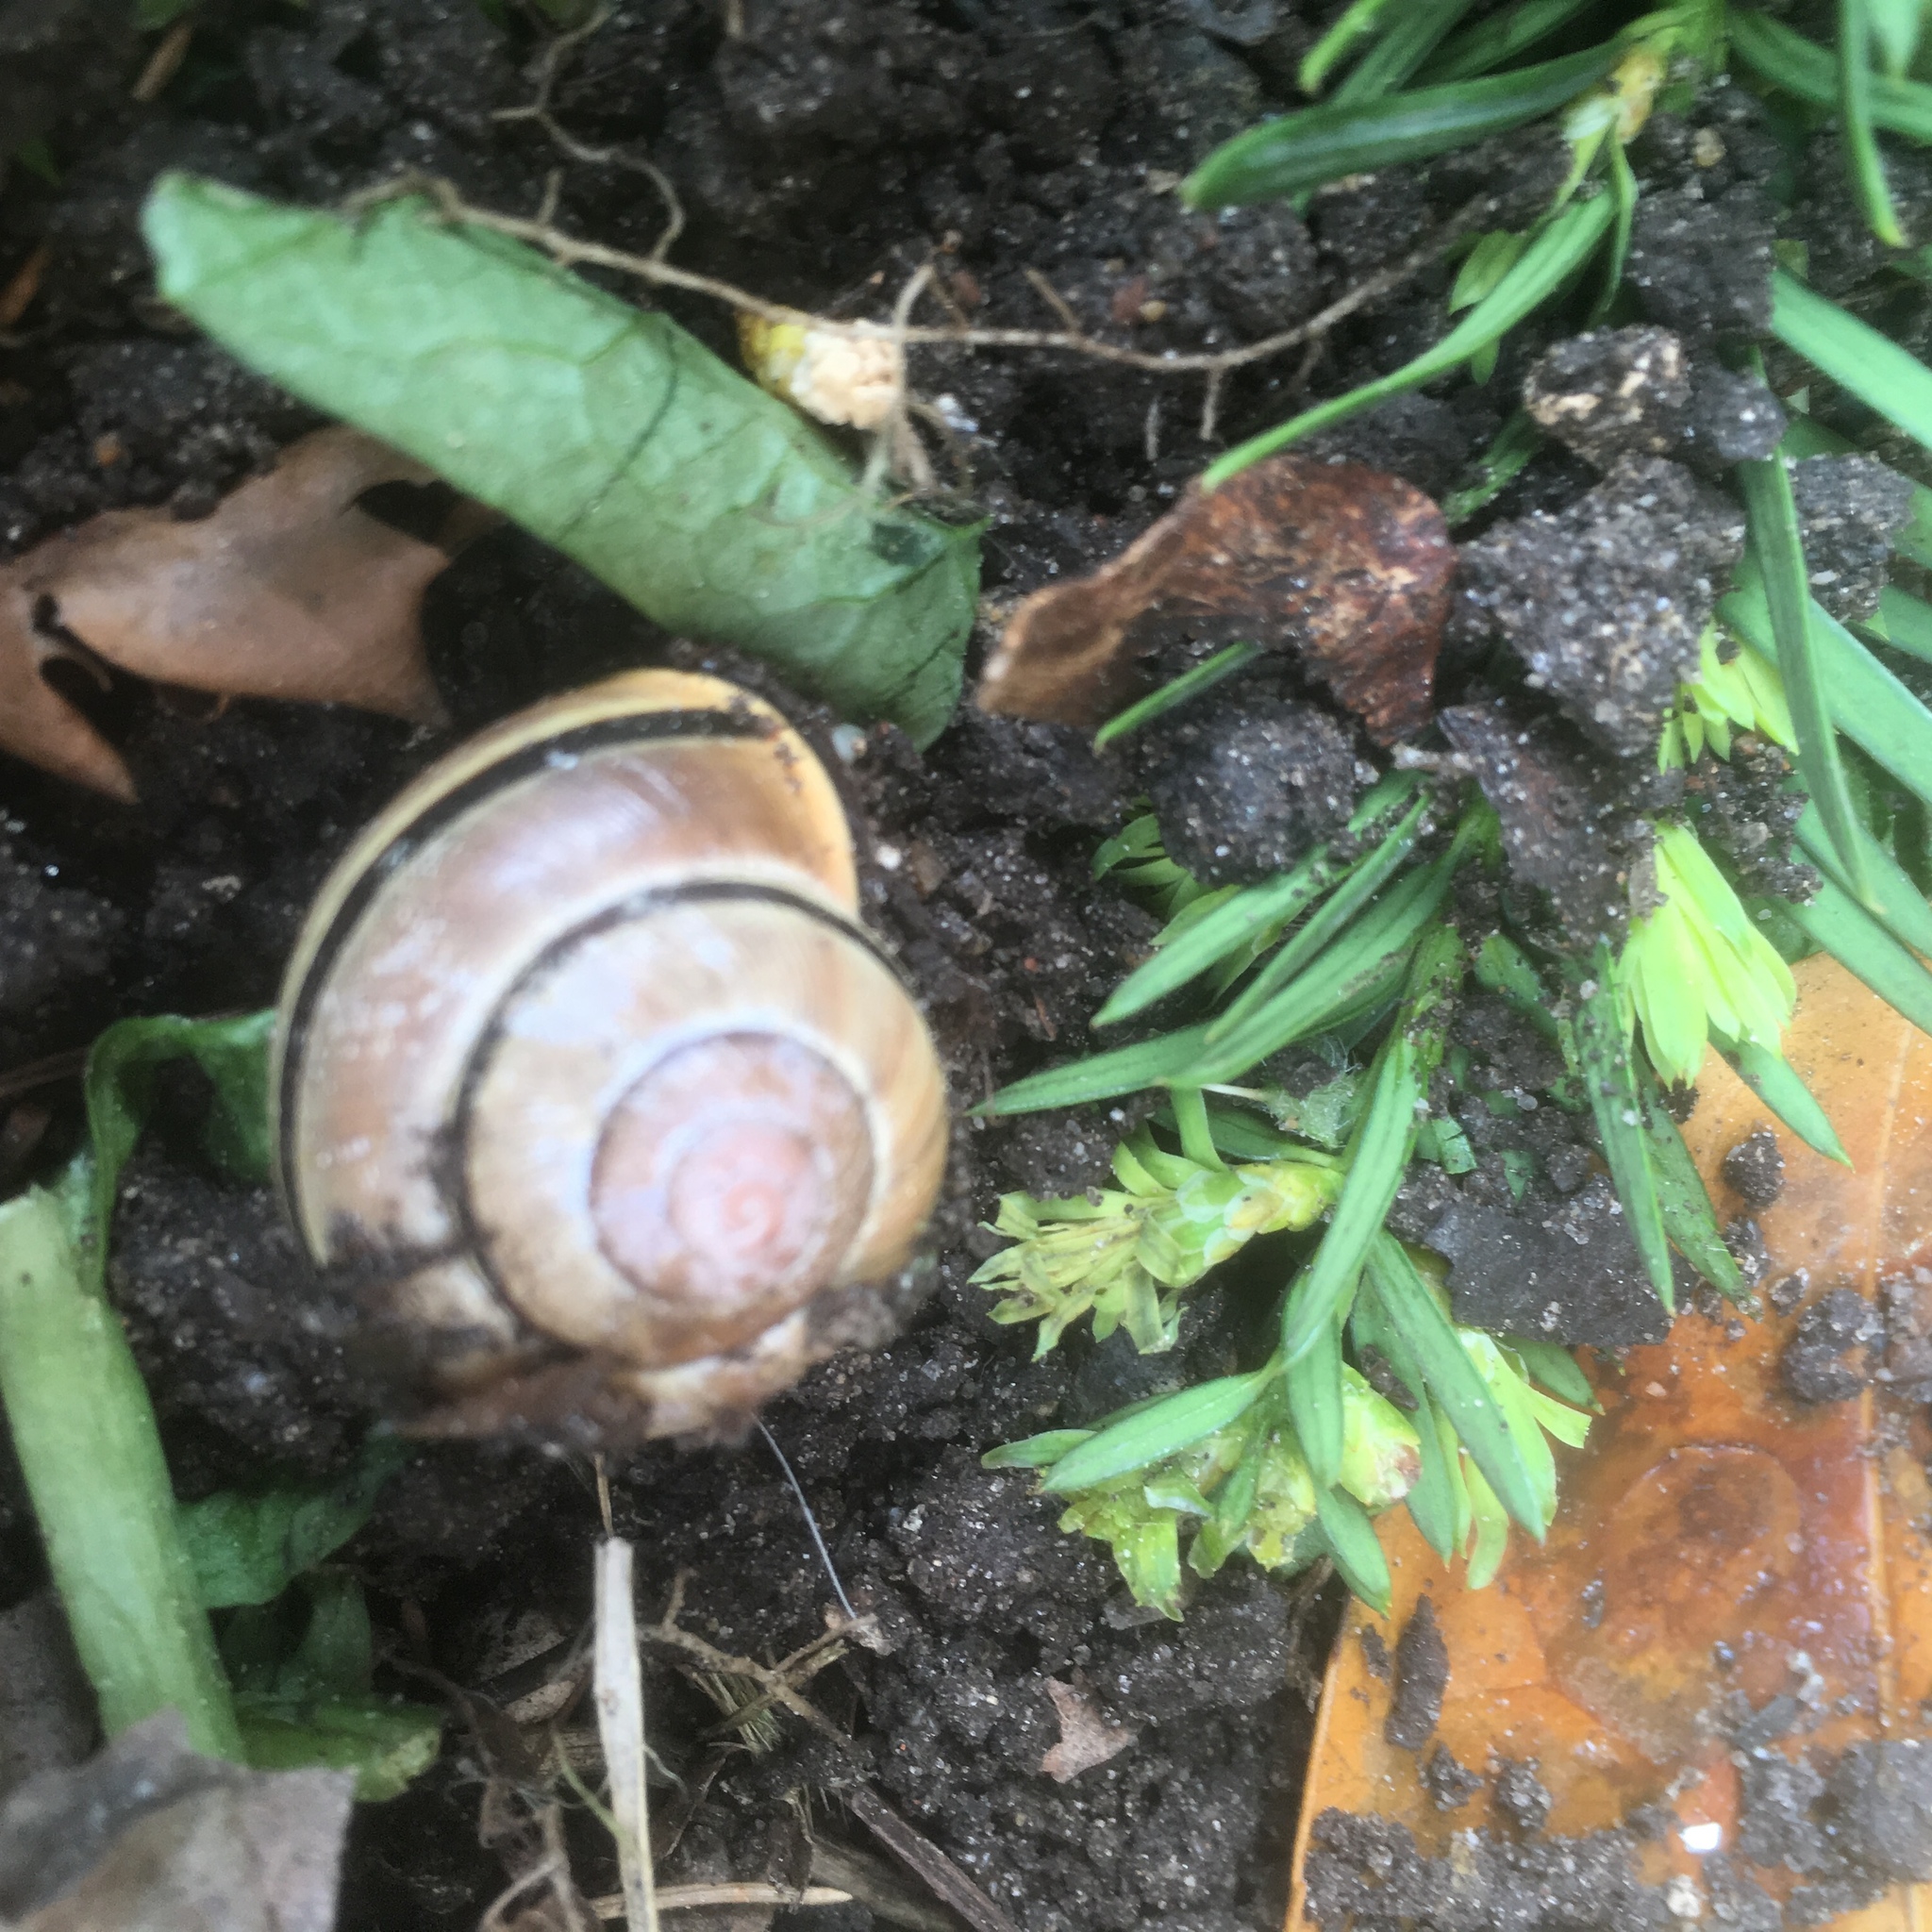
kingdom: Animalia
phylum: Mollusca
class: Gastropoda
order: Stylommatophora
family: Helicidae
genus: Cepaea
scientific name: Cepaea nemoralis
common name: Grovesnail
